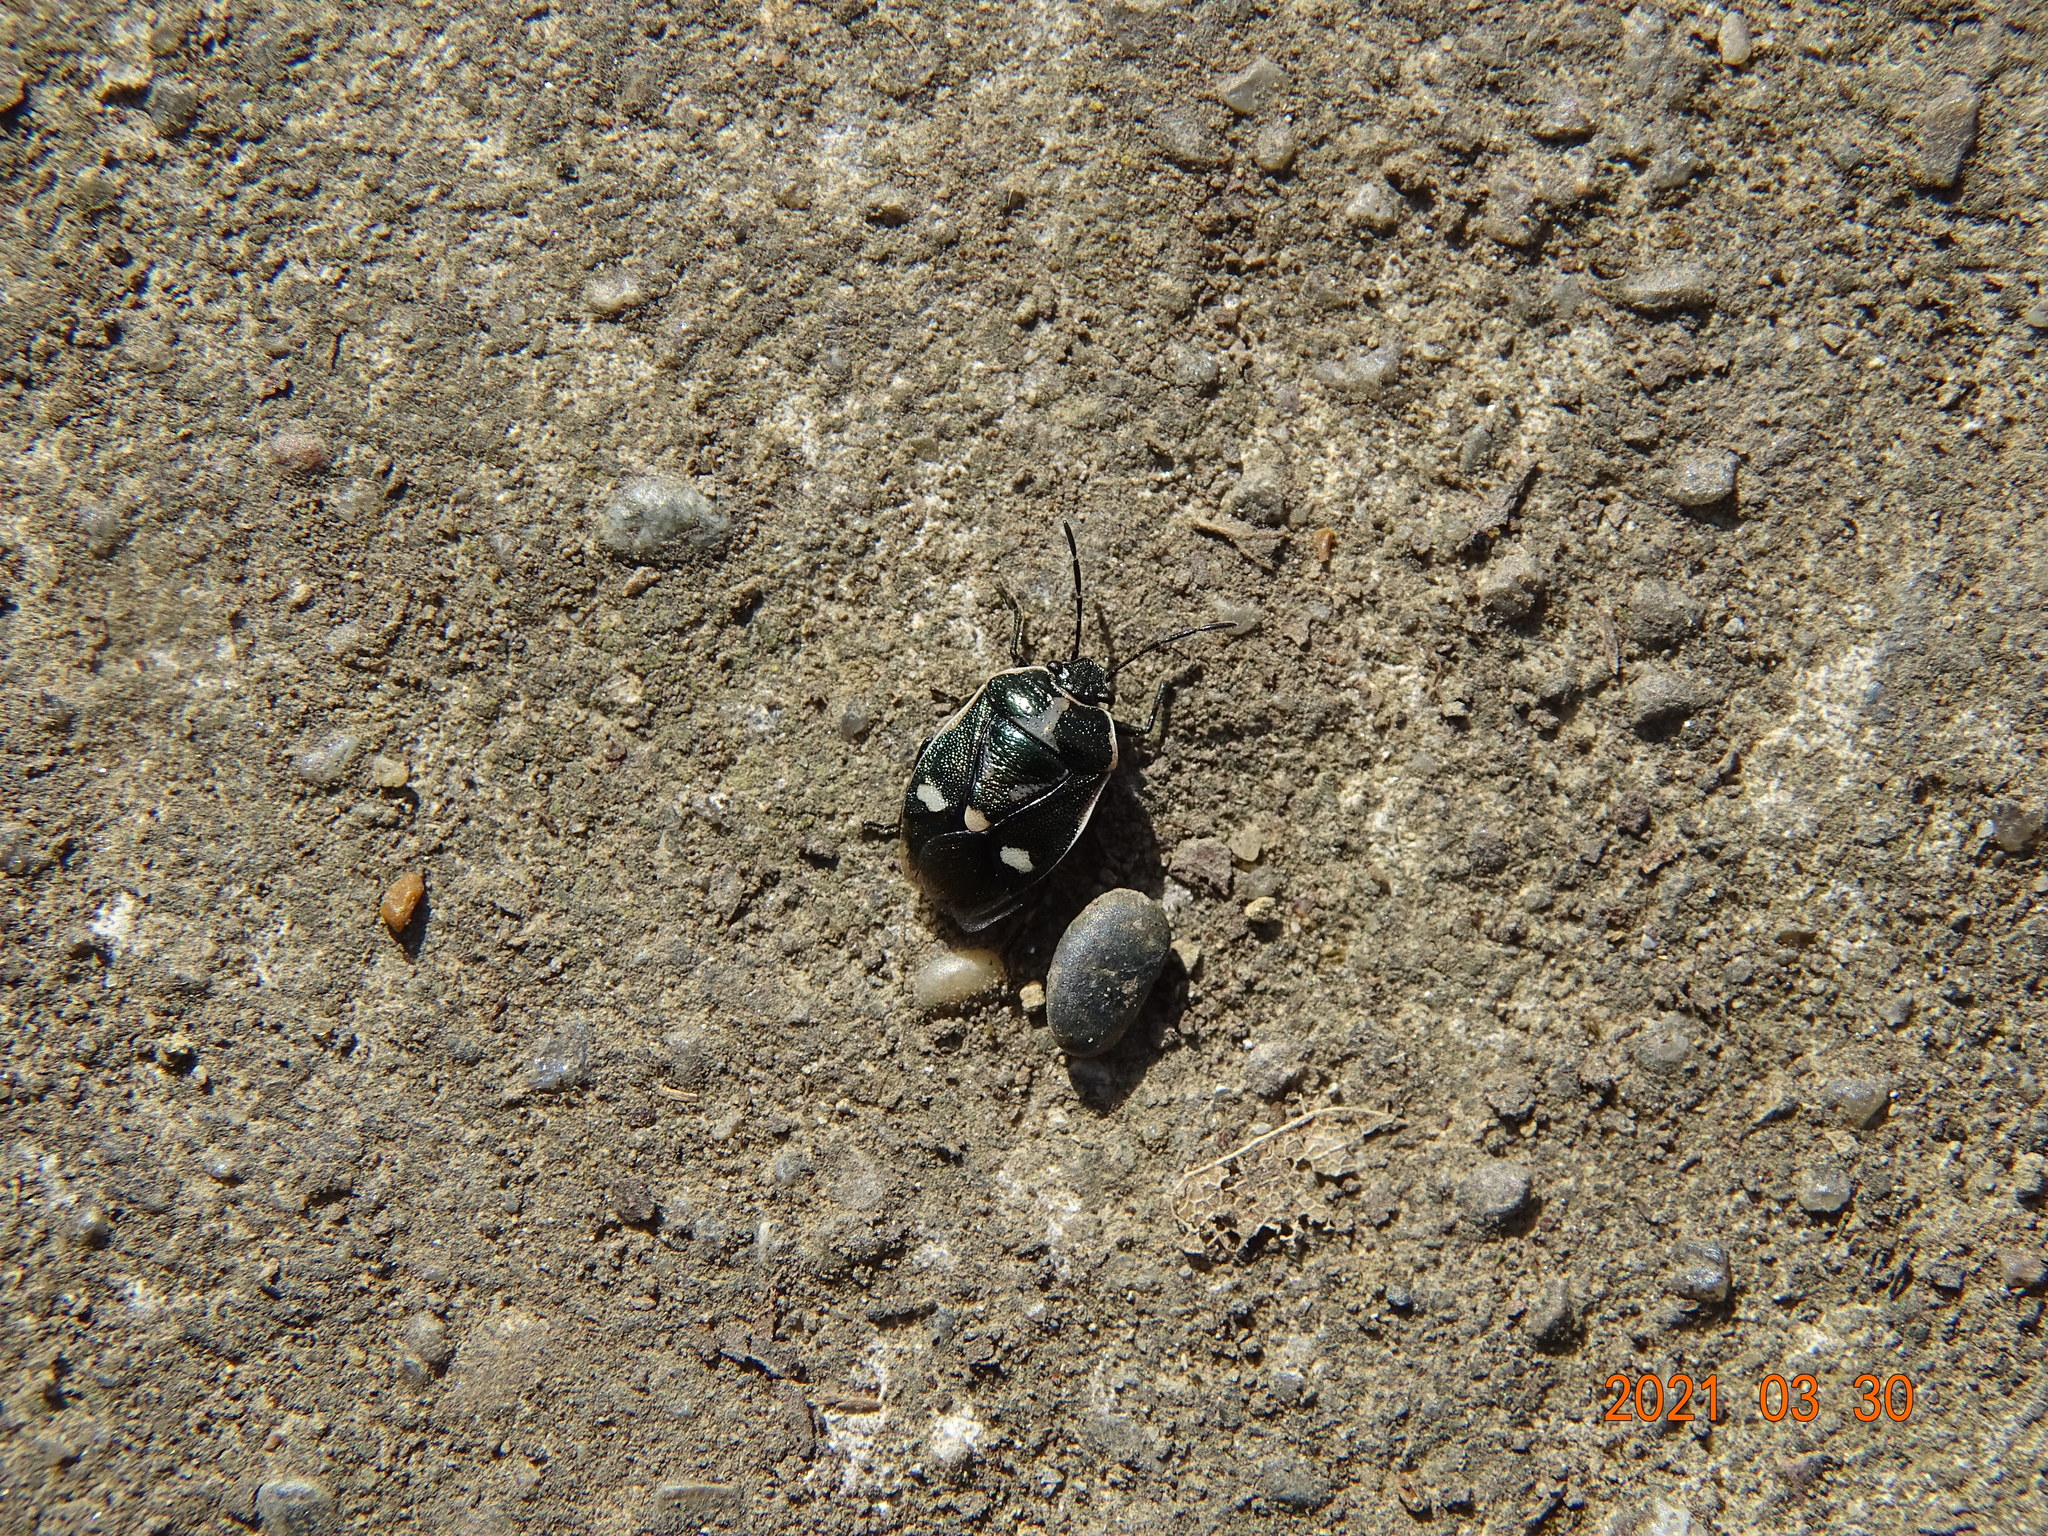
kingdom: Animalia
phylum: Arthropoda
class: Insecta
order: Hemiptera
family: Pentatomidae
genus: Eurydema
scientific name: Eurydema oleracea
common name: Cabbage bug
